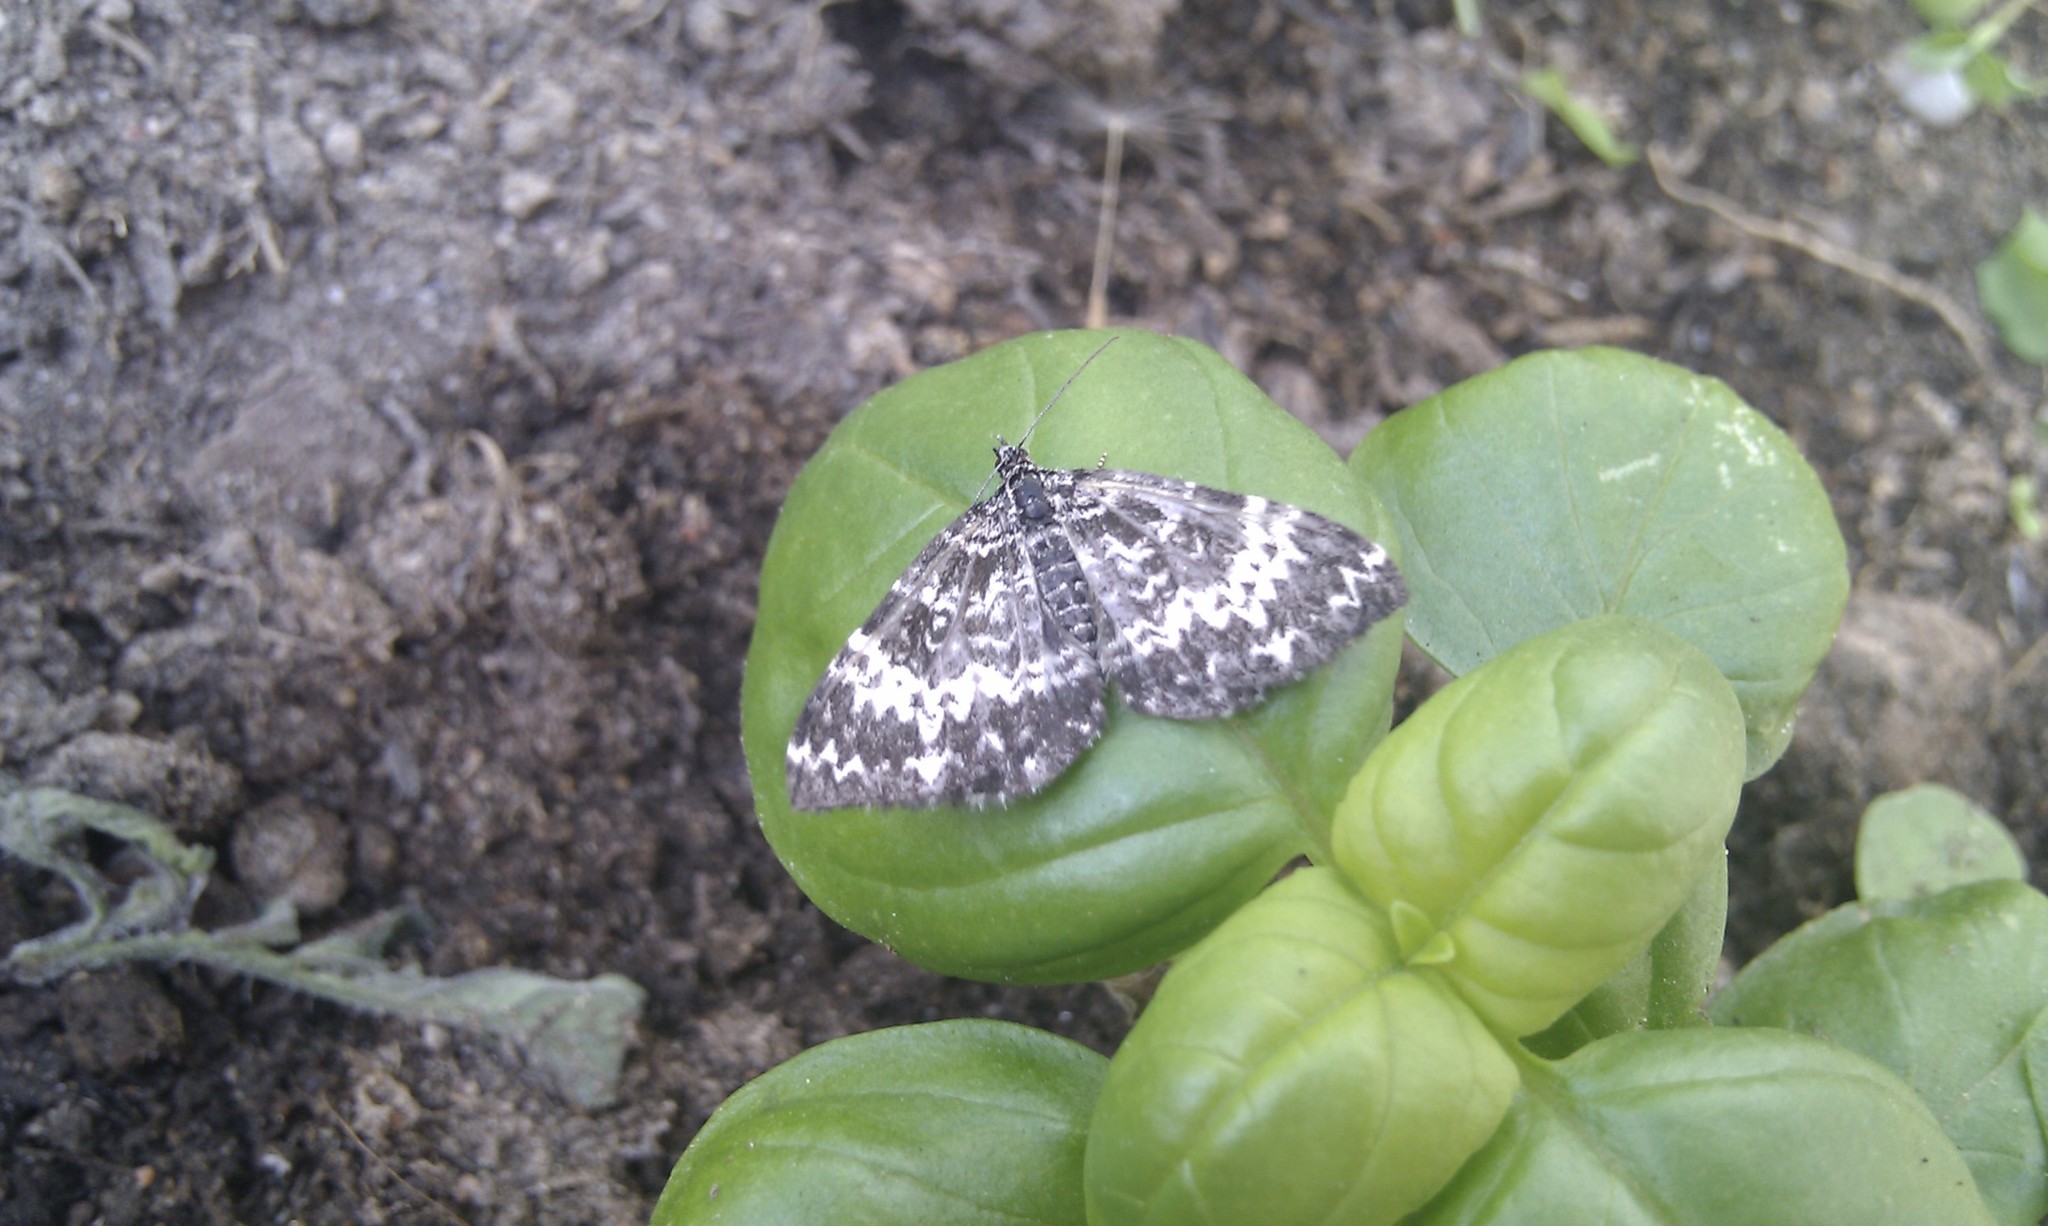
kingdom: Animalia
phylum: Arthropoda
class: Insecta
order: Lepidoptera
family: Geometridae
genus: Rheumaptera
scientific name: Rheumaptera subhastata
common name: White-banded black moth
